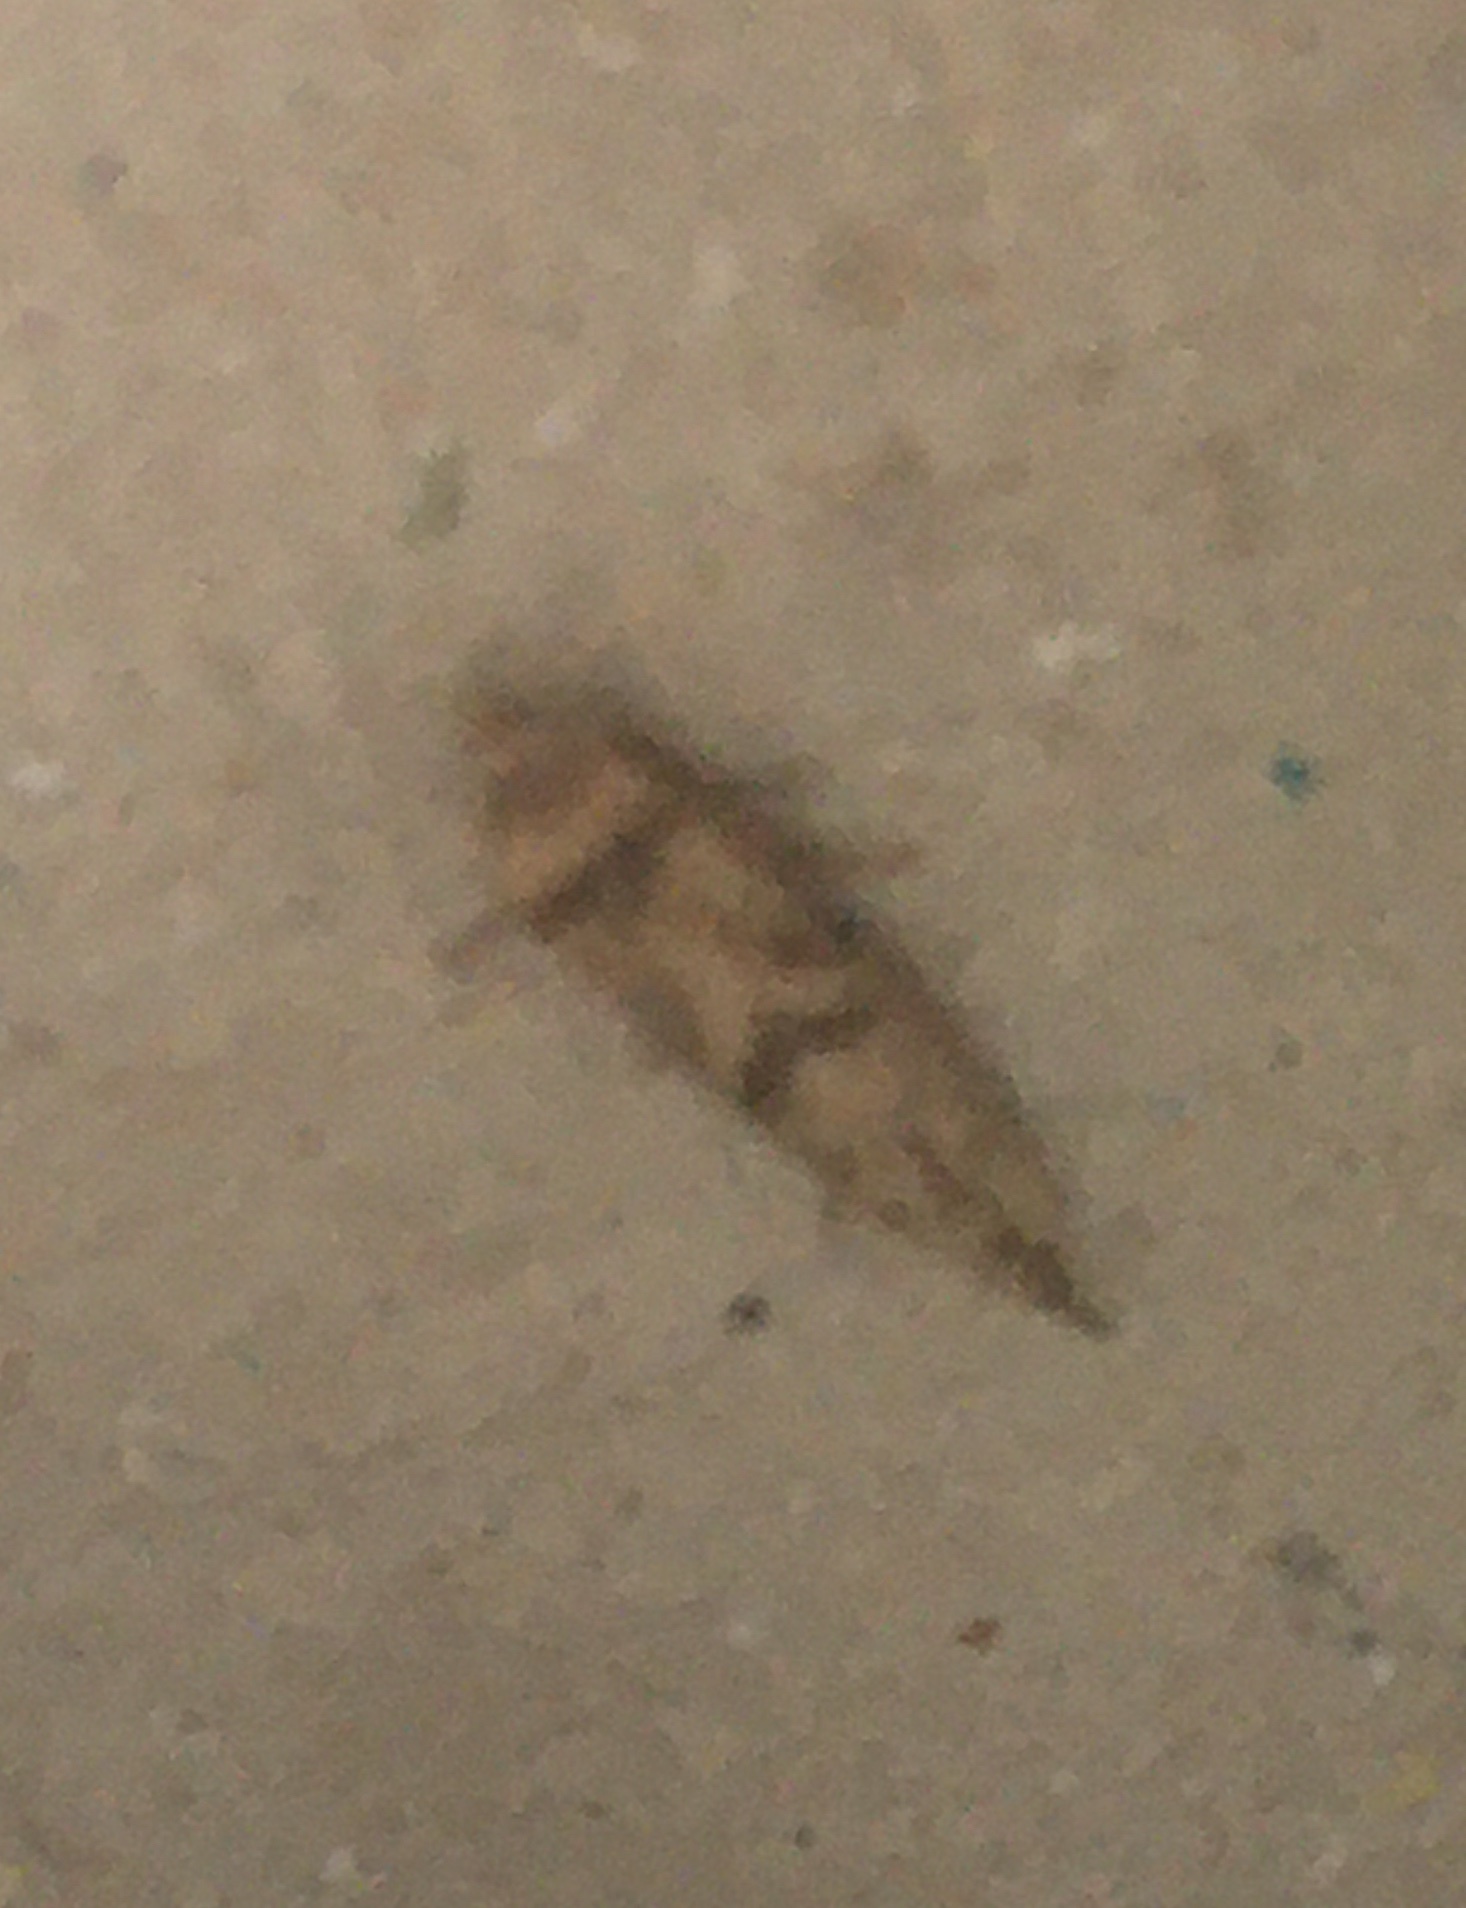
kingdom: Animalia
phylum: Arthropoda
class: Insecta
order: Lepidoptera
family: Blastobasidae
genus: Blastobasis
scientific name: Blastobasis adustella
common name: Dingy dowd
